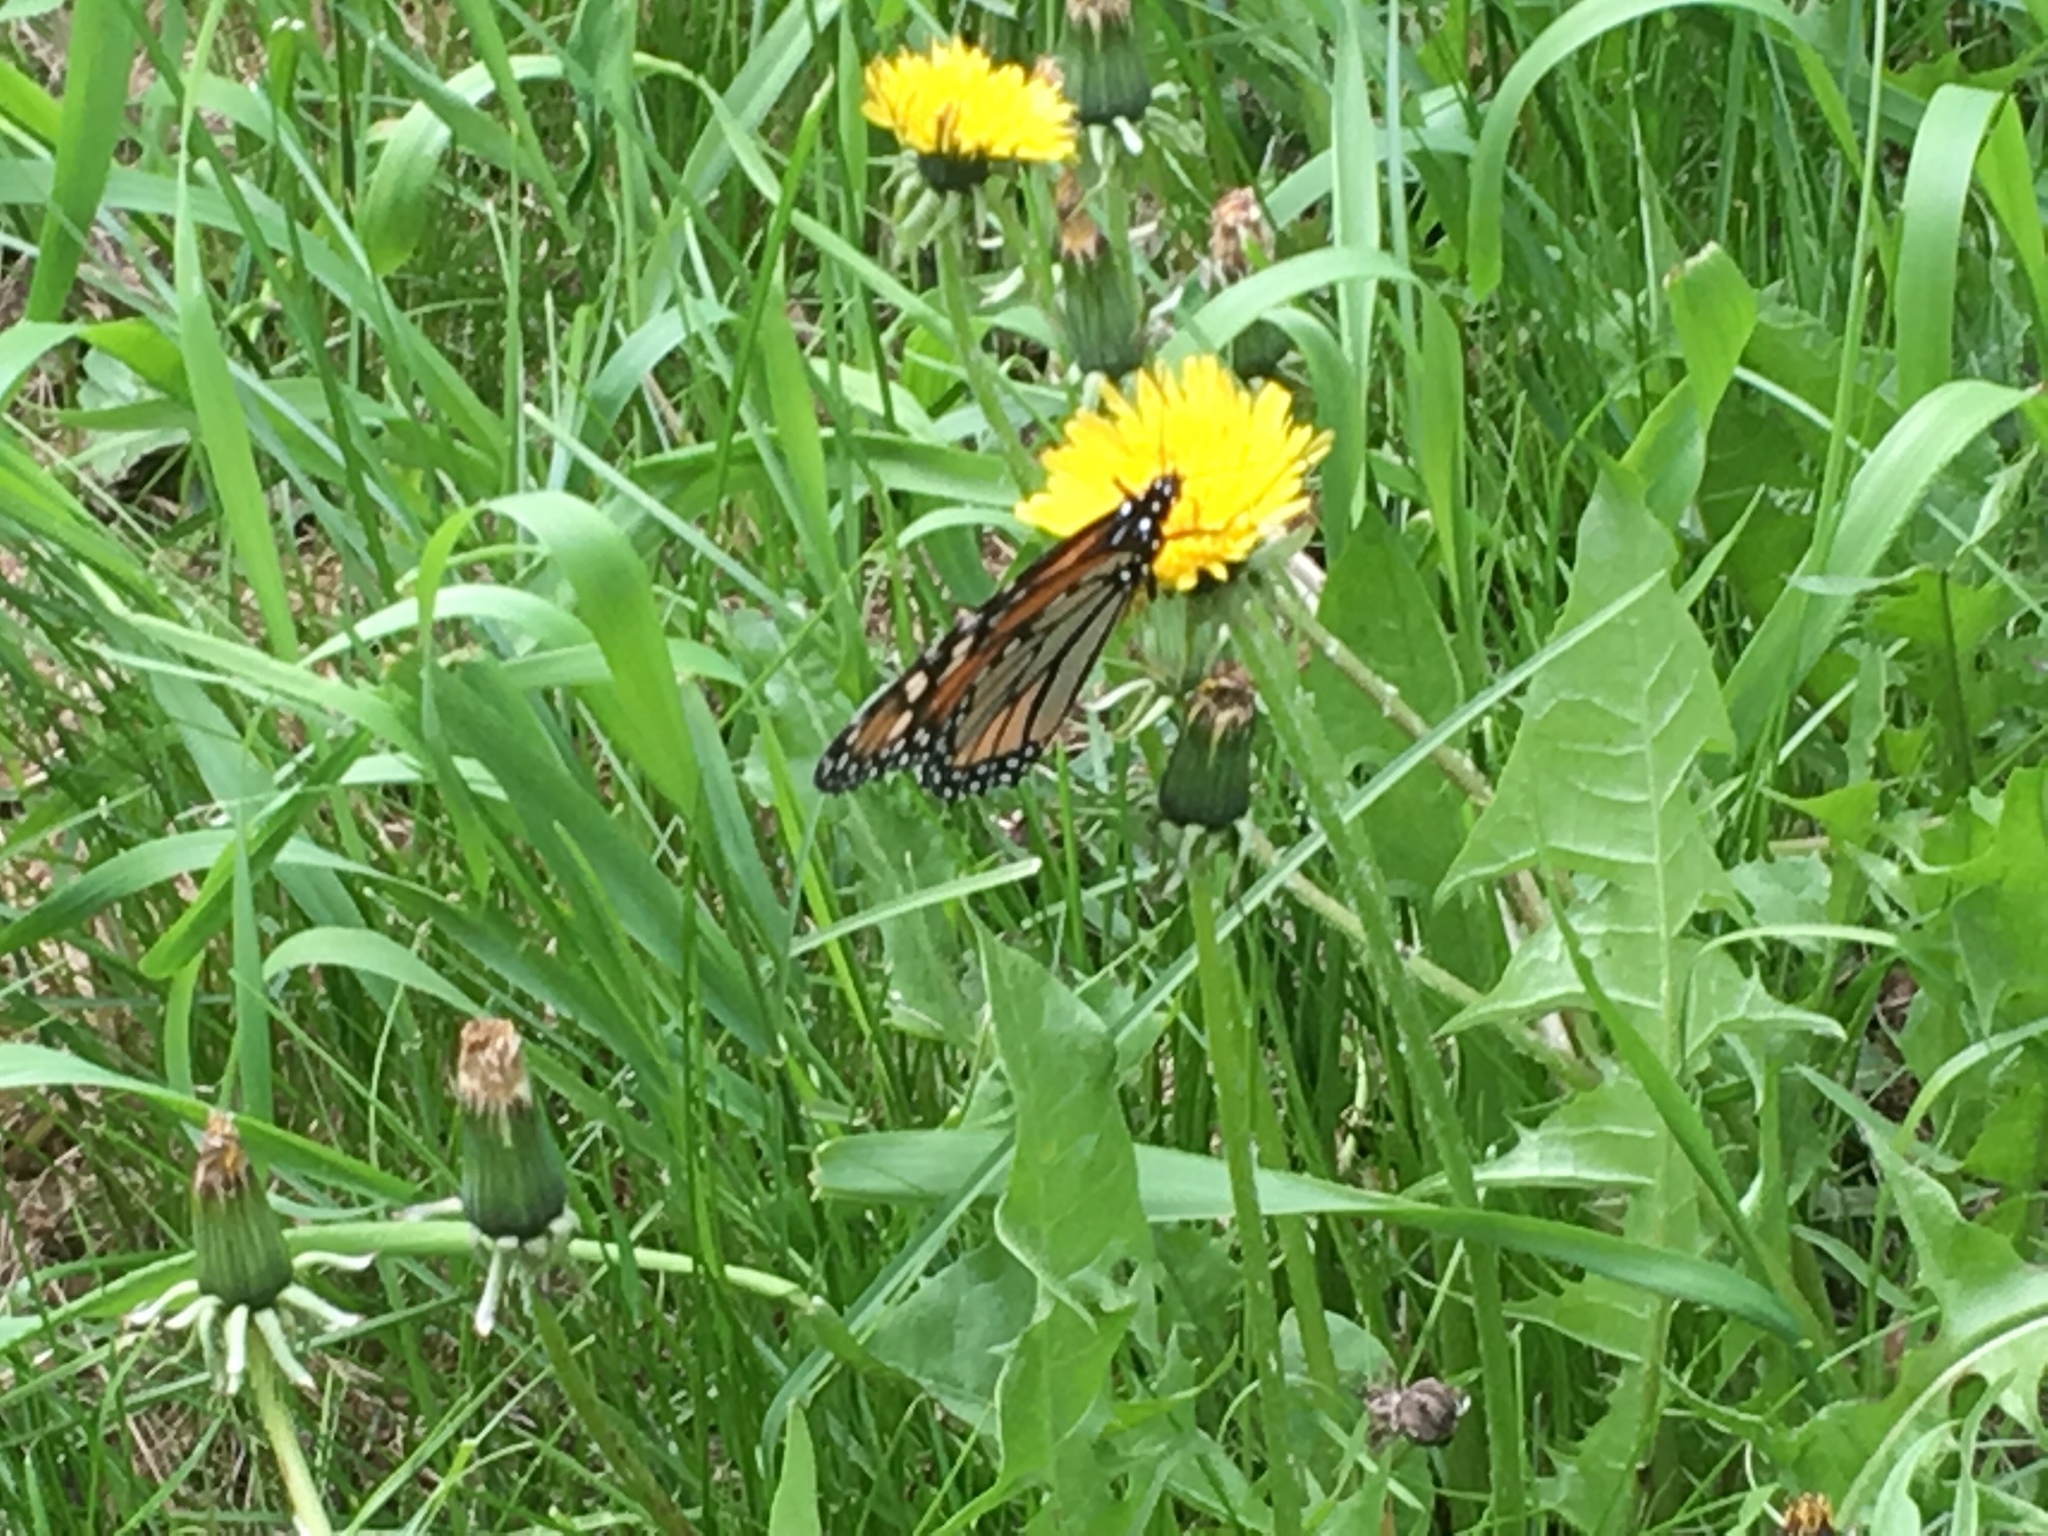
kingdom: Animalia
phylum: Arthropoda
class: Insecta
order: Lepidoptera
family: Nymphalidae
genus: Danaus
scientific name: Danaus plexippus
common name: Monarch
